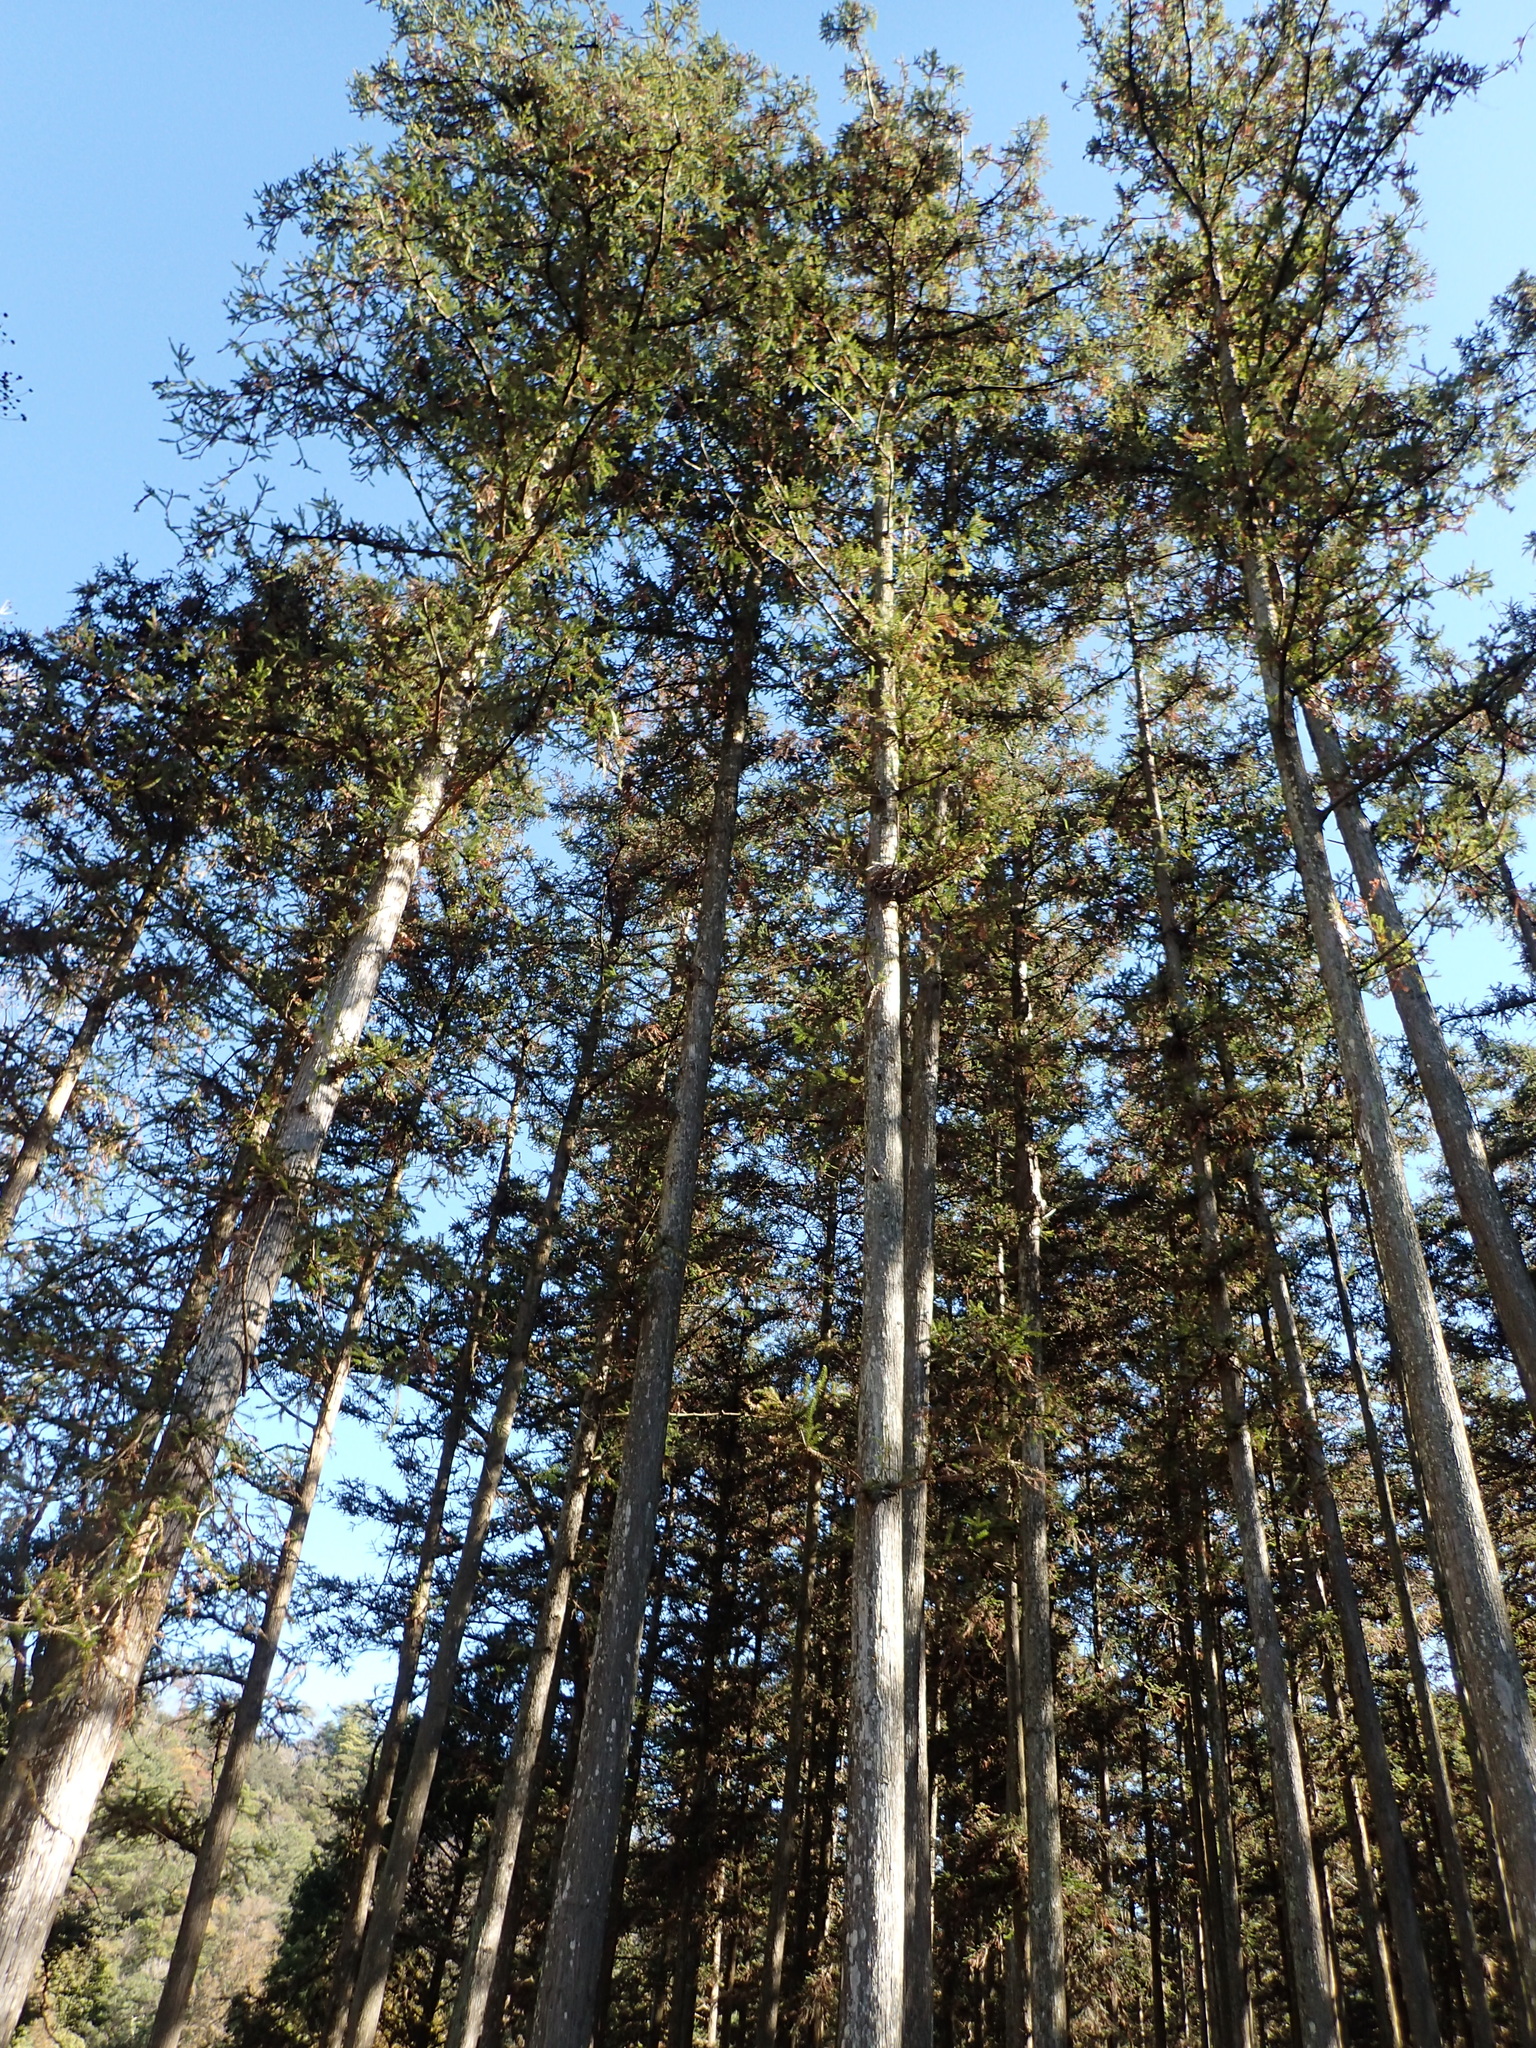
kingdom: Plantae
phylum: Tracheophyta
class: Pinopsida
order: Pinales
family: Cupressaceae
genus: Cunninghamia
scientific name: Cunninghamia konishii
